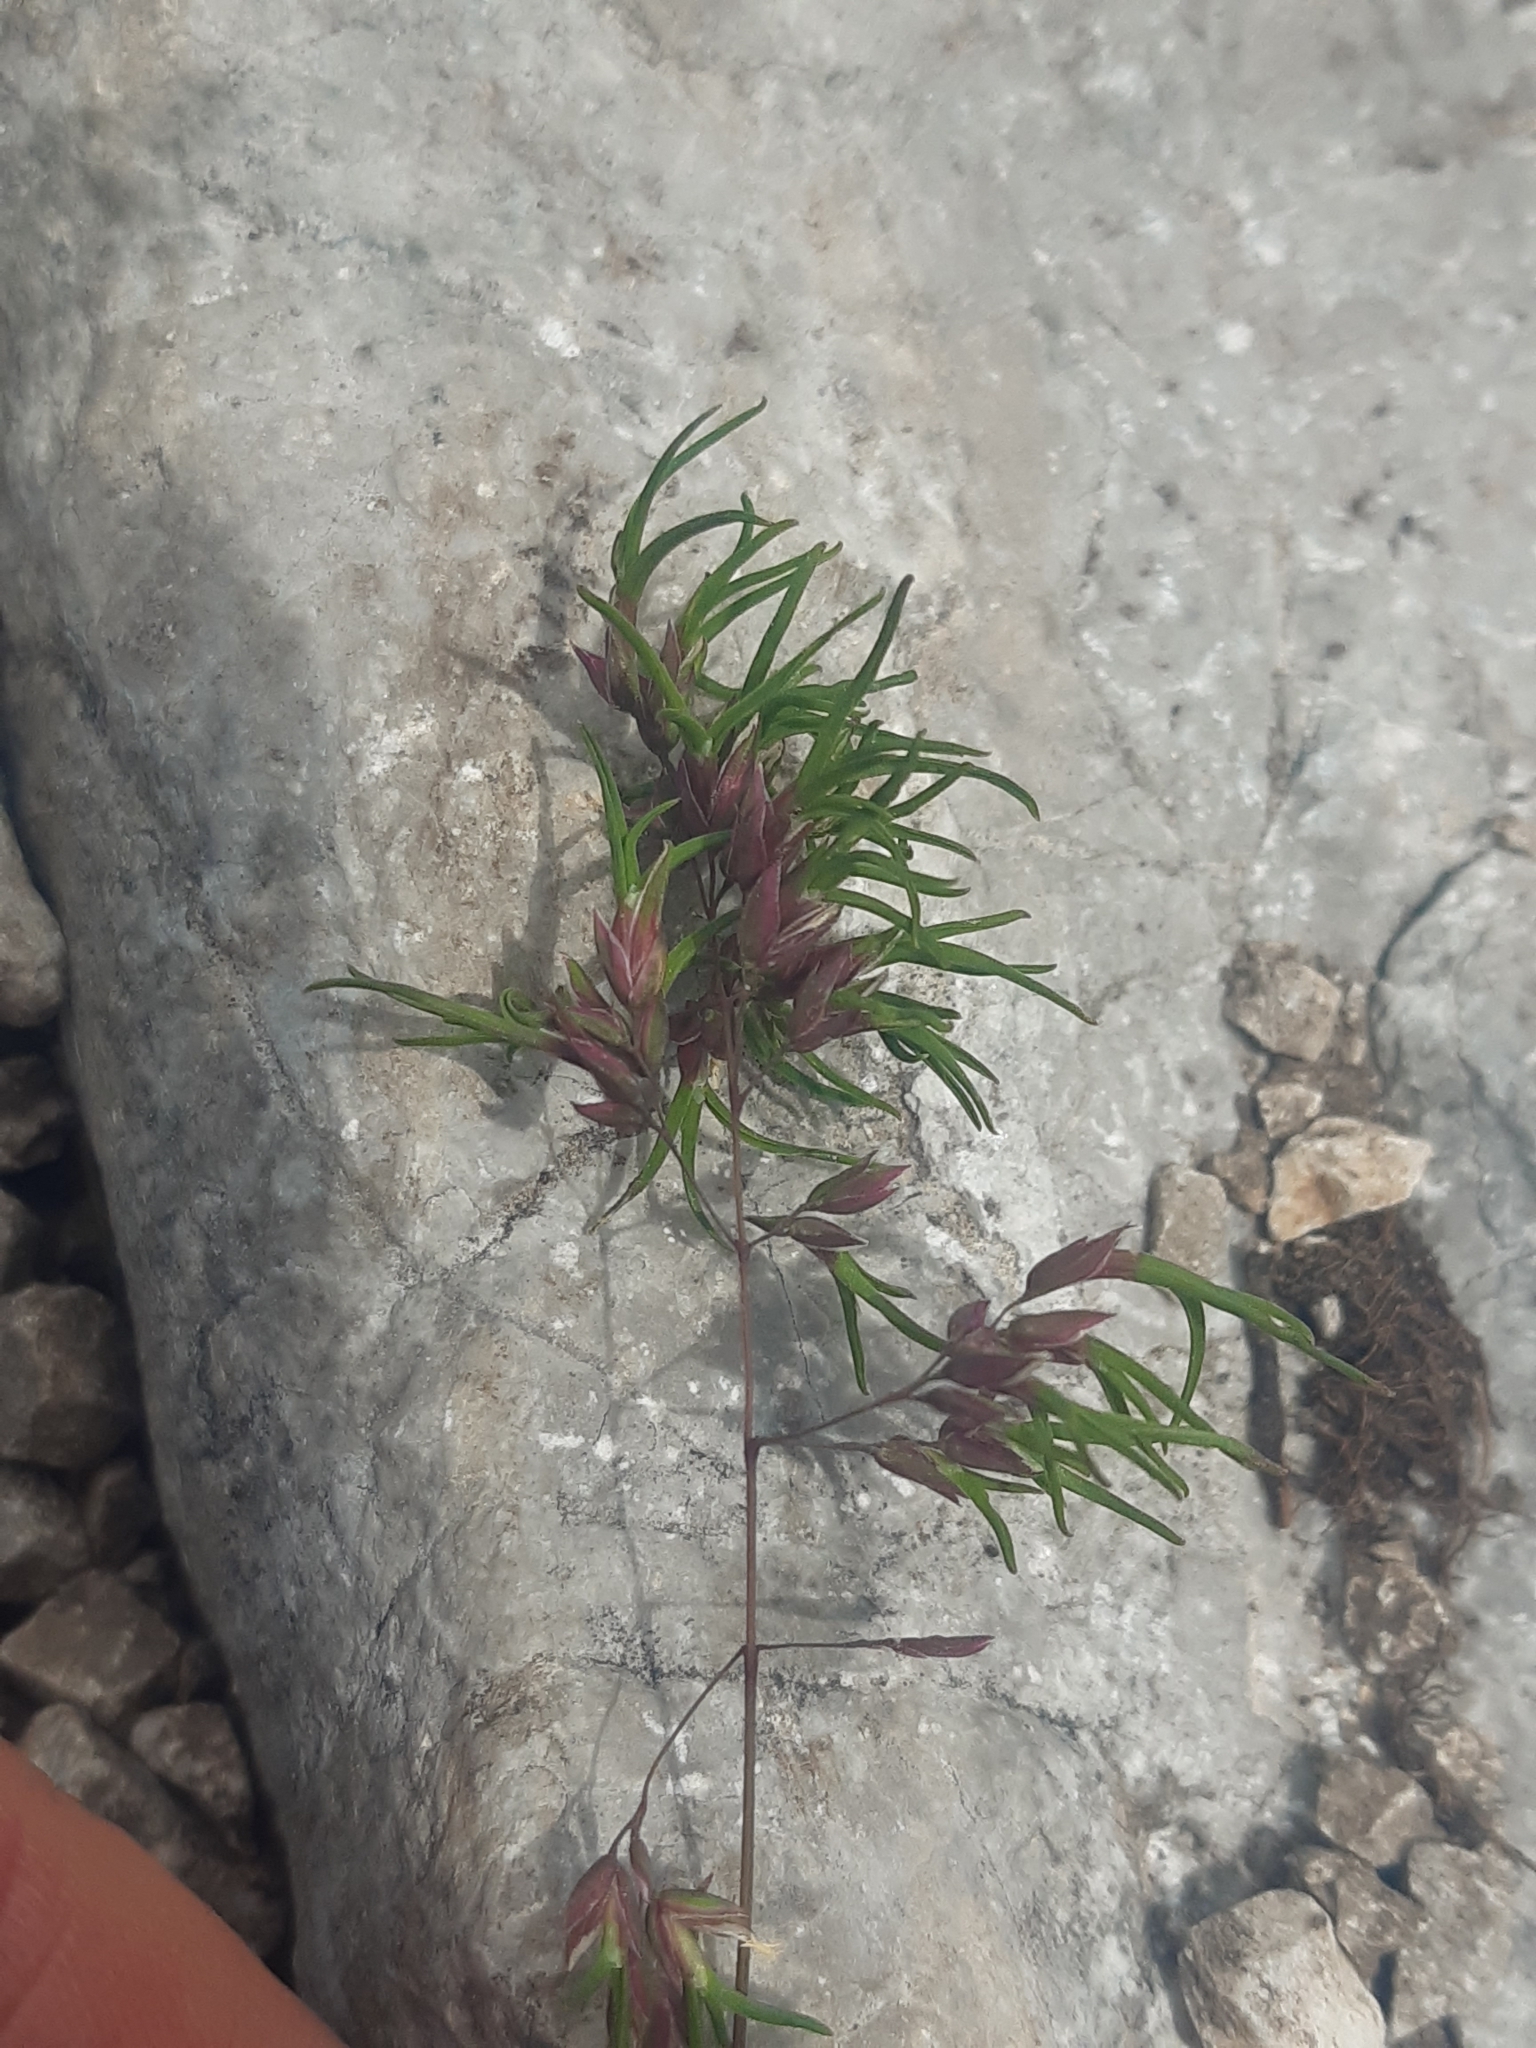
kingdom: Plantae
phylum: Tracheophyta
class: Liliopsida
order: Poales
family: Poaceae
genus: Poa
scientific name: Poa alpina
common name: Alpine bluegrass
